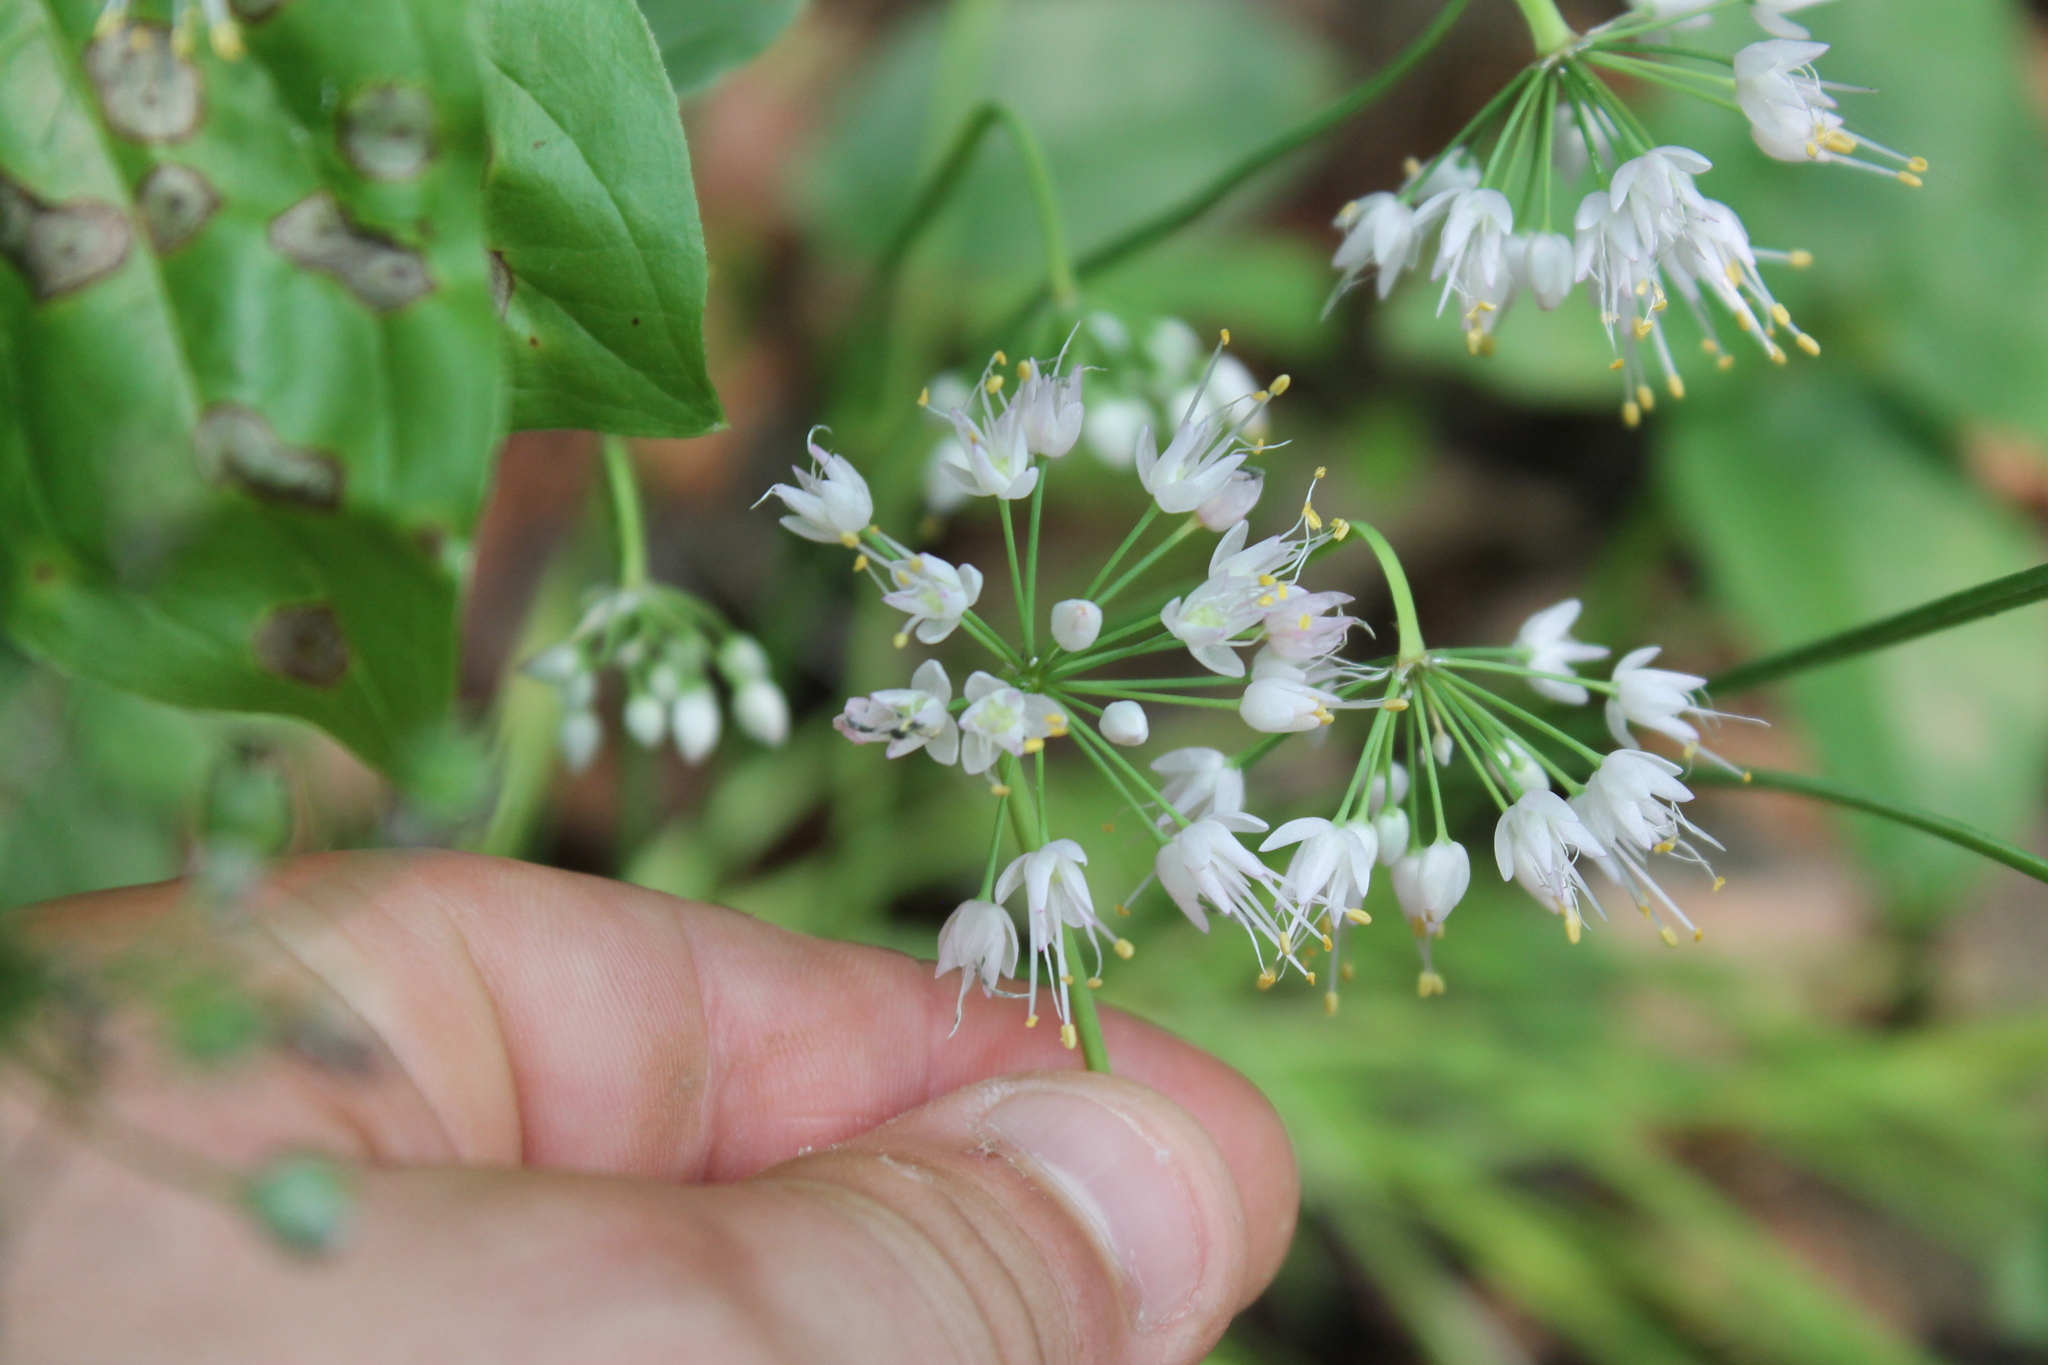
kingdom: Plantae
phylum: Tracheophyta
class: Liliopsida
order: Asparagales
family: Amaryllidaceae
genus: Allium
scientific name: Allium cernuum
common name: Nodding onion
